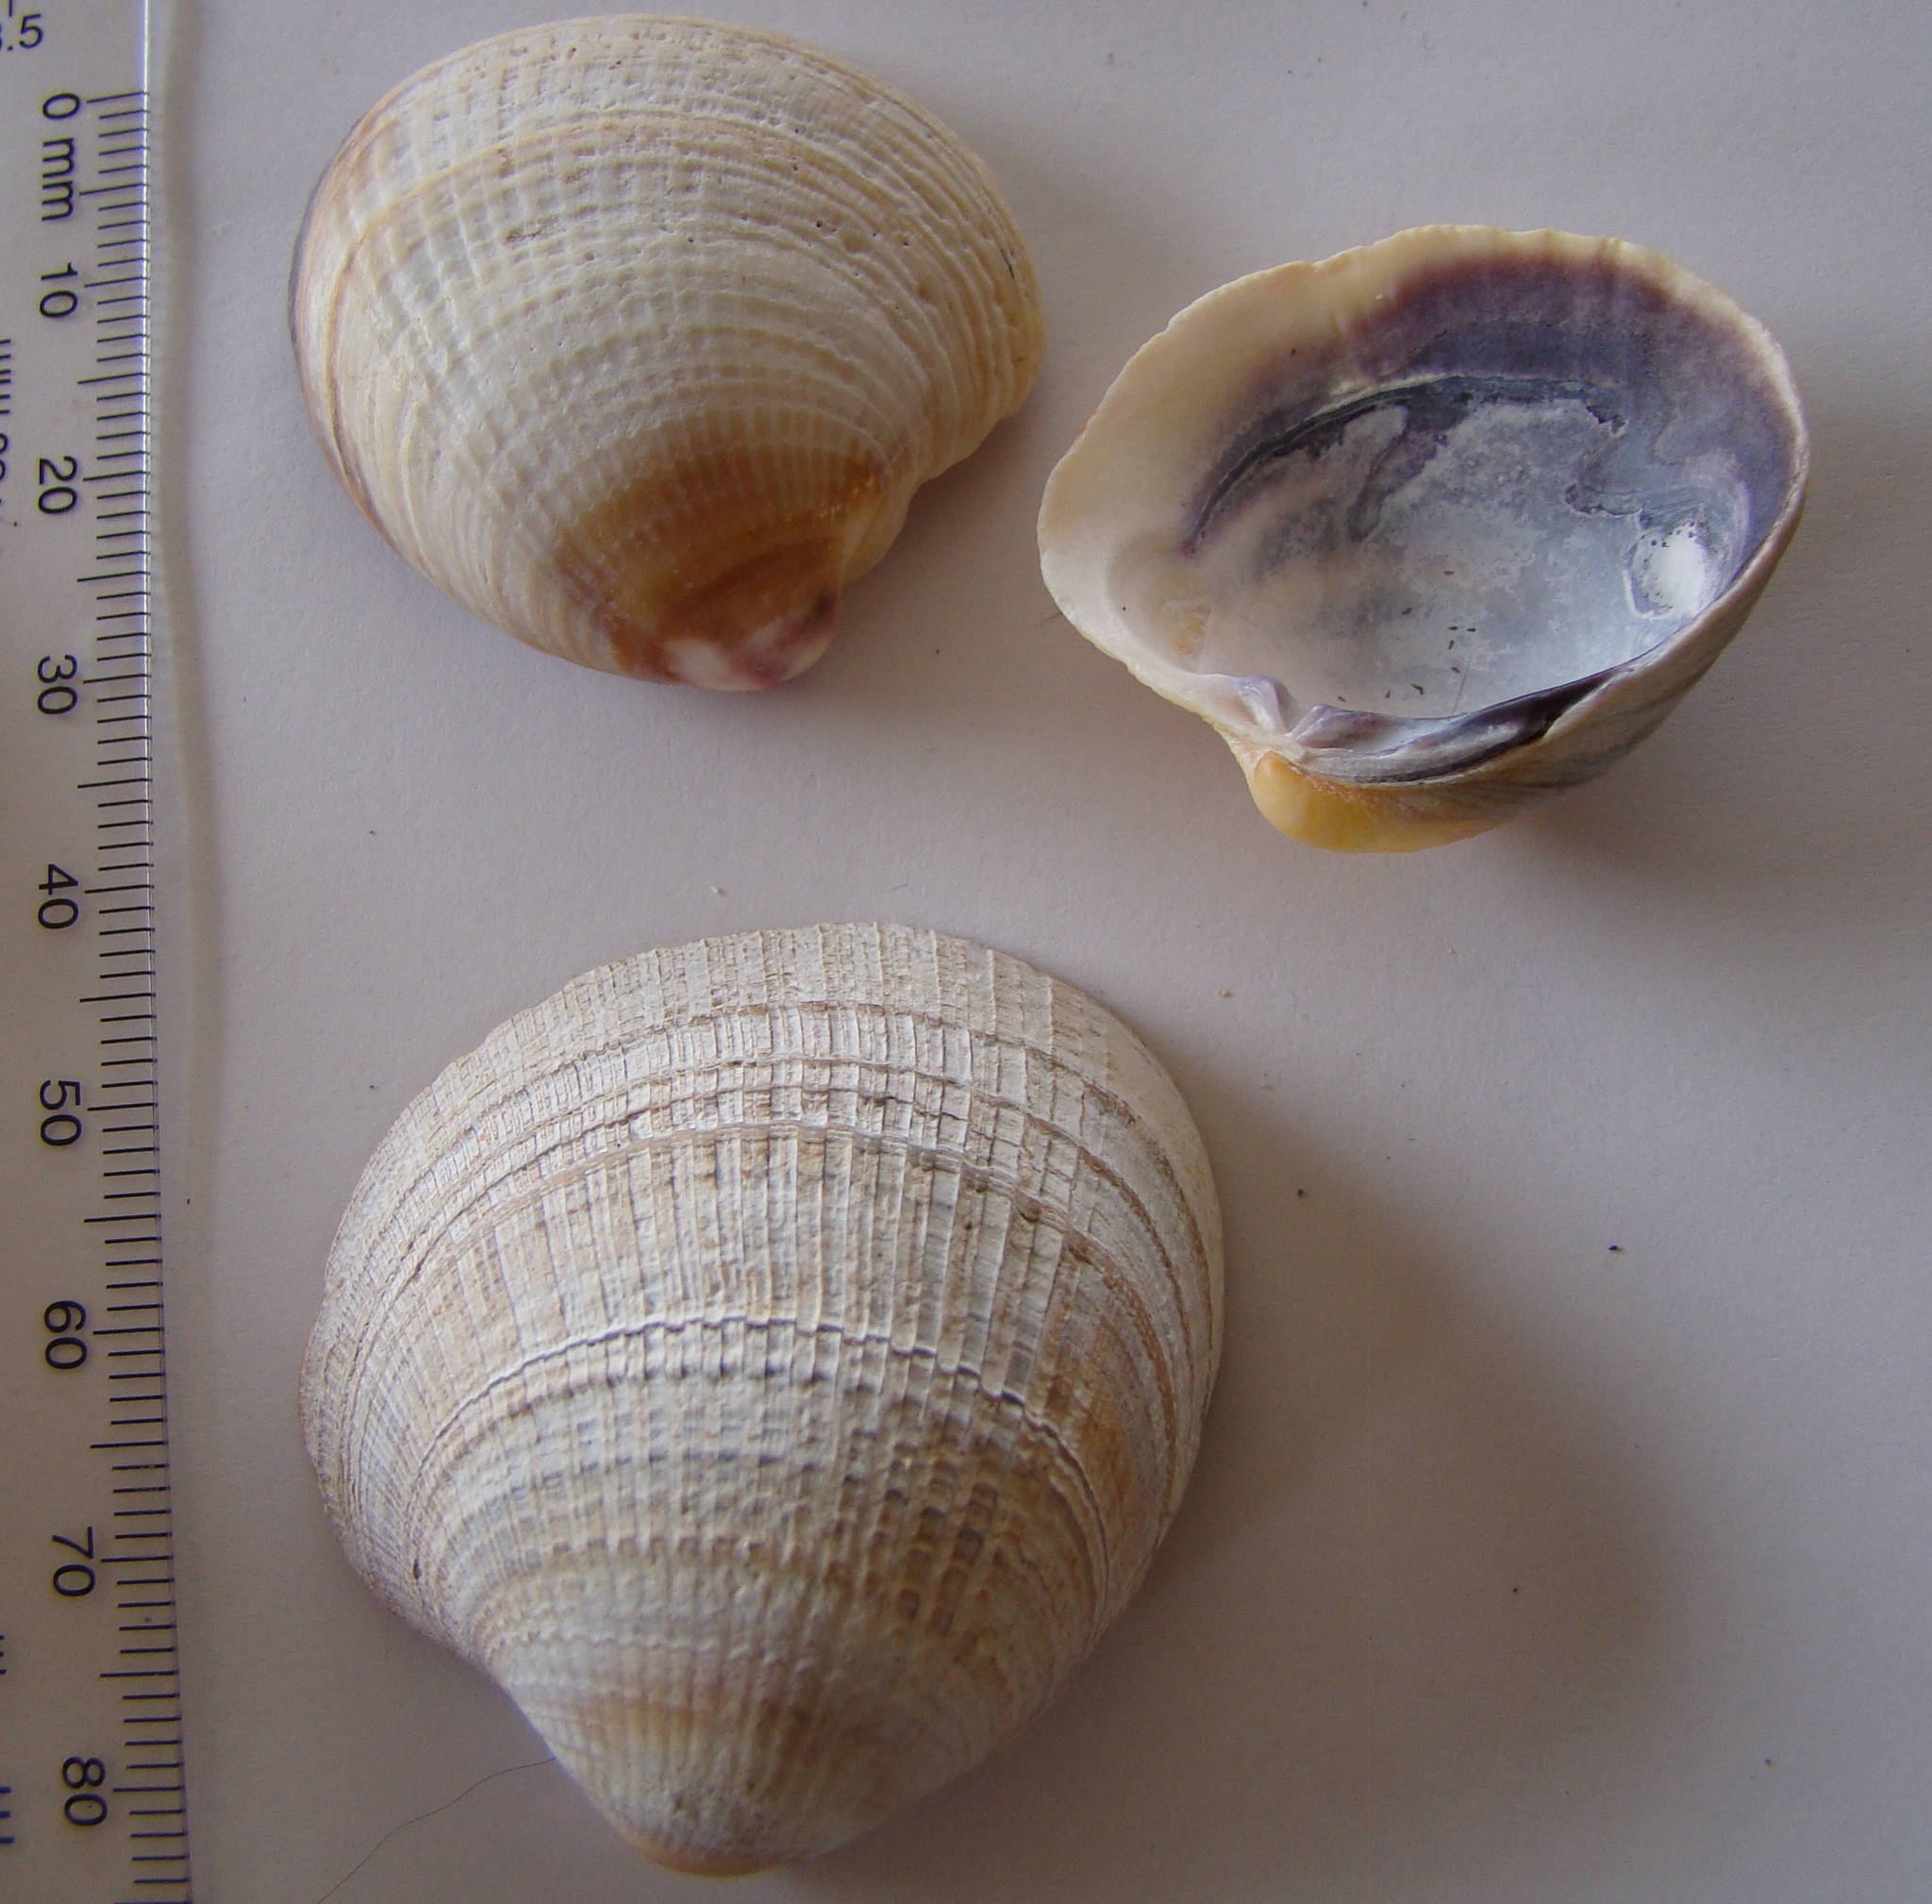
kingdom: Animalia
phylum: Mollusca
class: Bivalvia
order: Venerida
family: Veneridae
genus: Austrovenus
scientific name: Austrovenus stutchburyi
